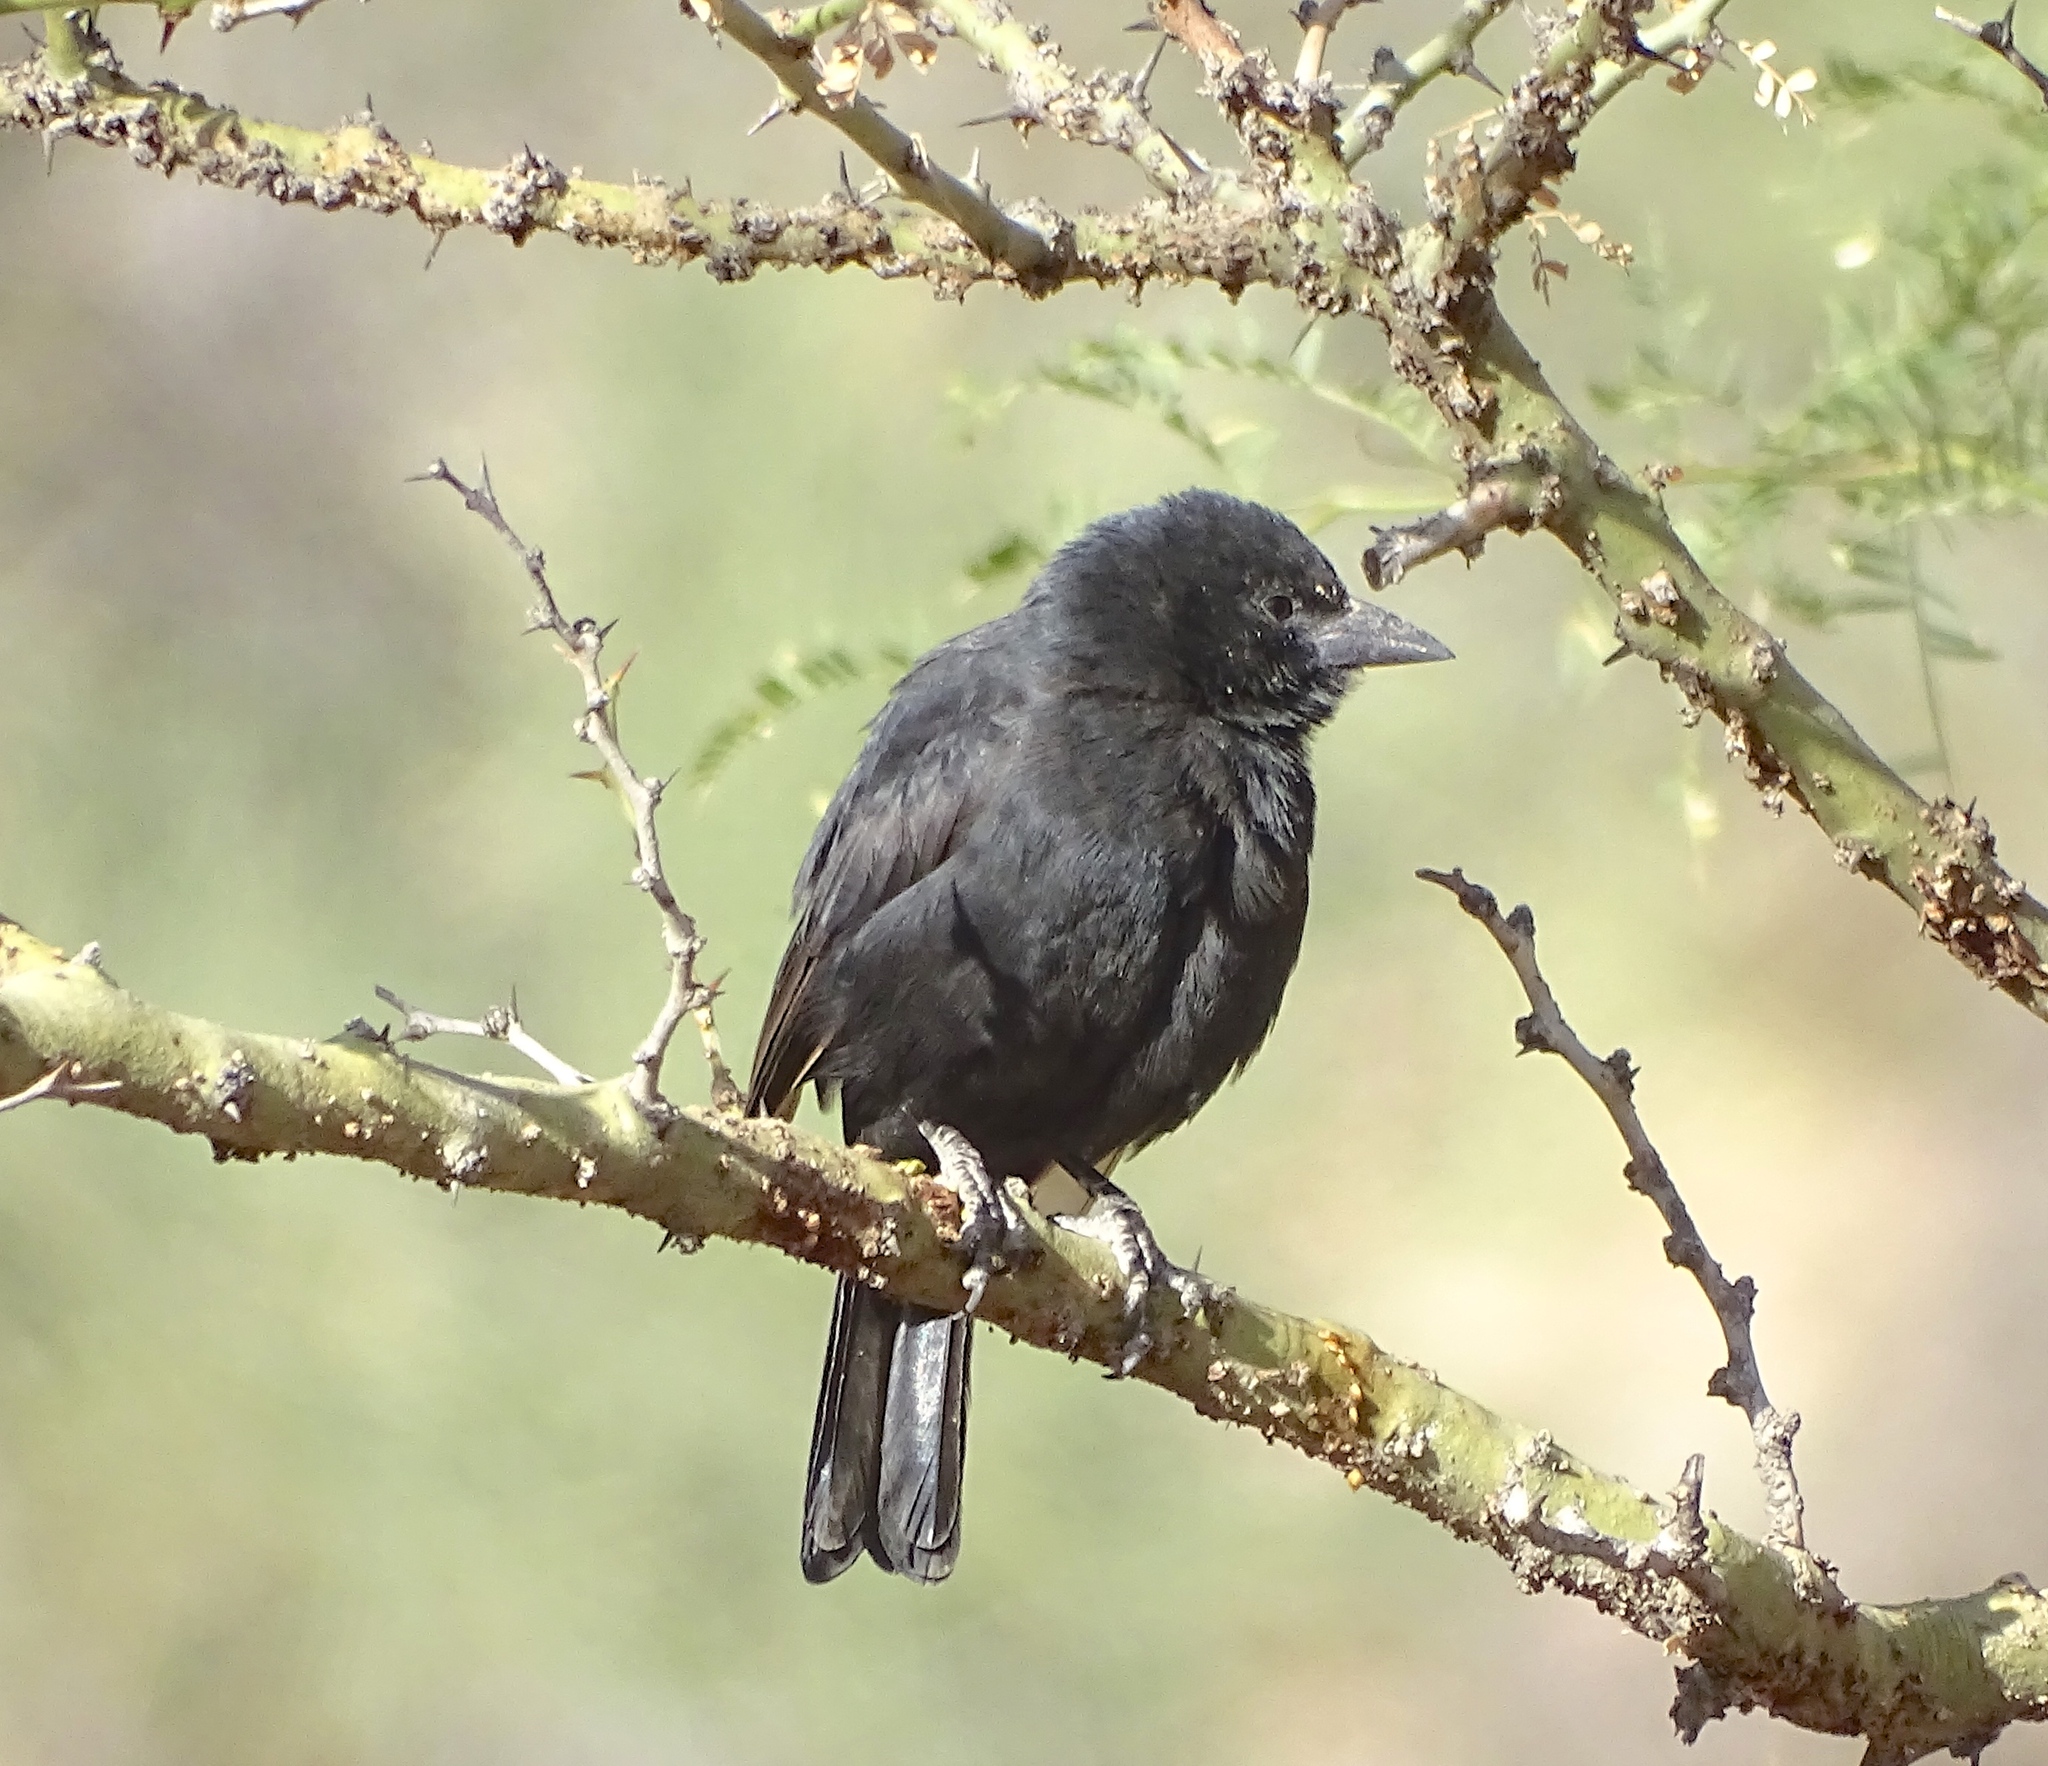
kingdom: Animalia
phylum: Chordata
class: Aves
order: Passeriformes
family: Icteridae
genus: Agelaioides
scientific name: Agelaioides oreopsar
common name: Bolivian blackbird
